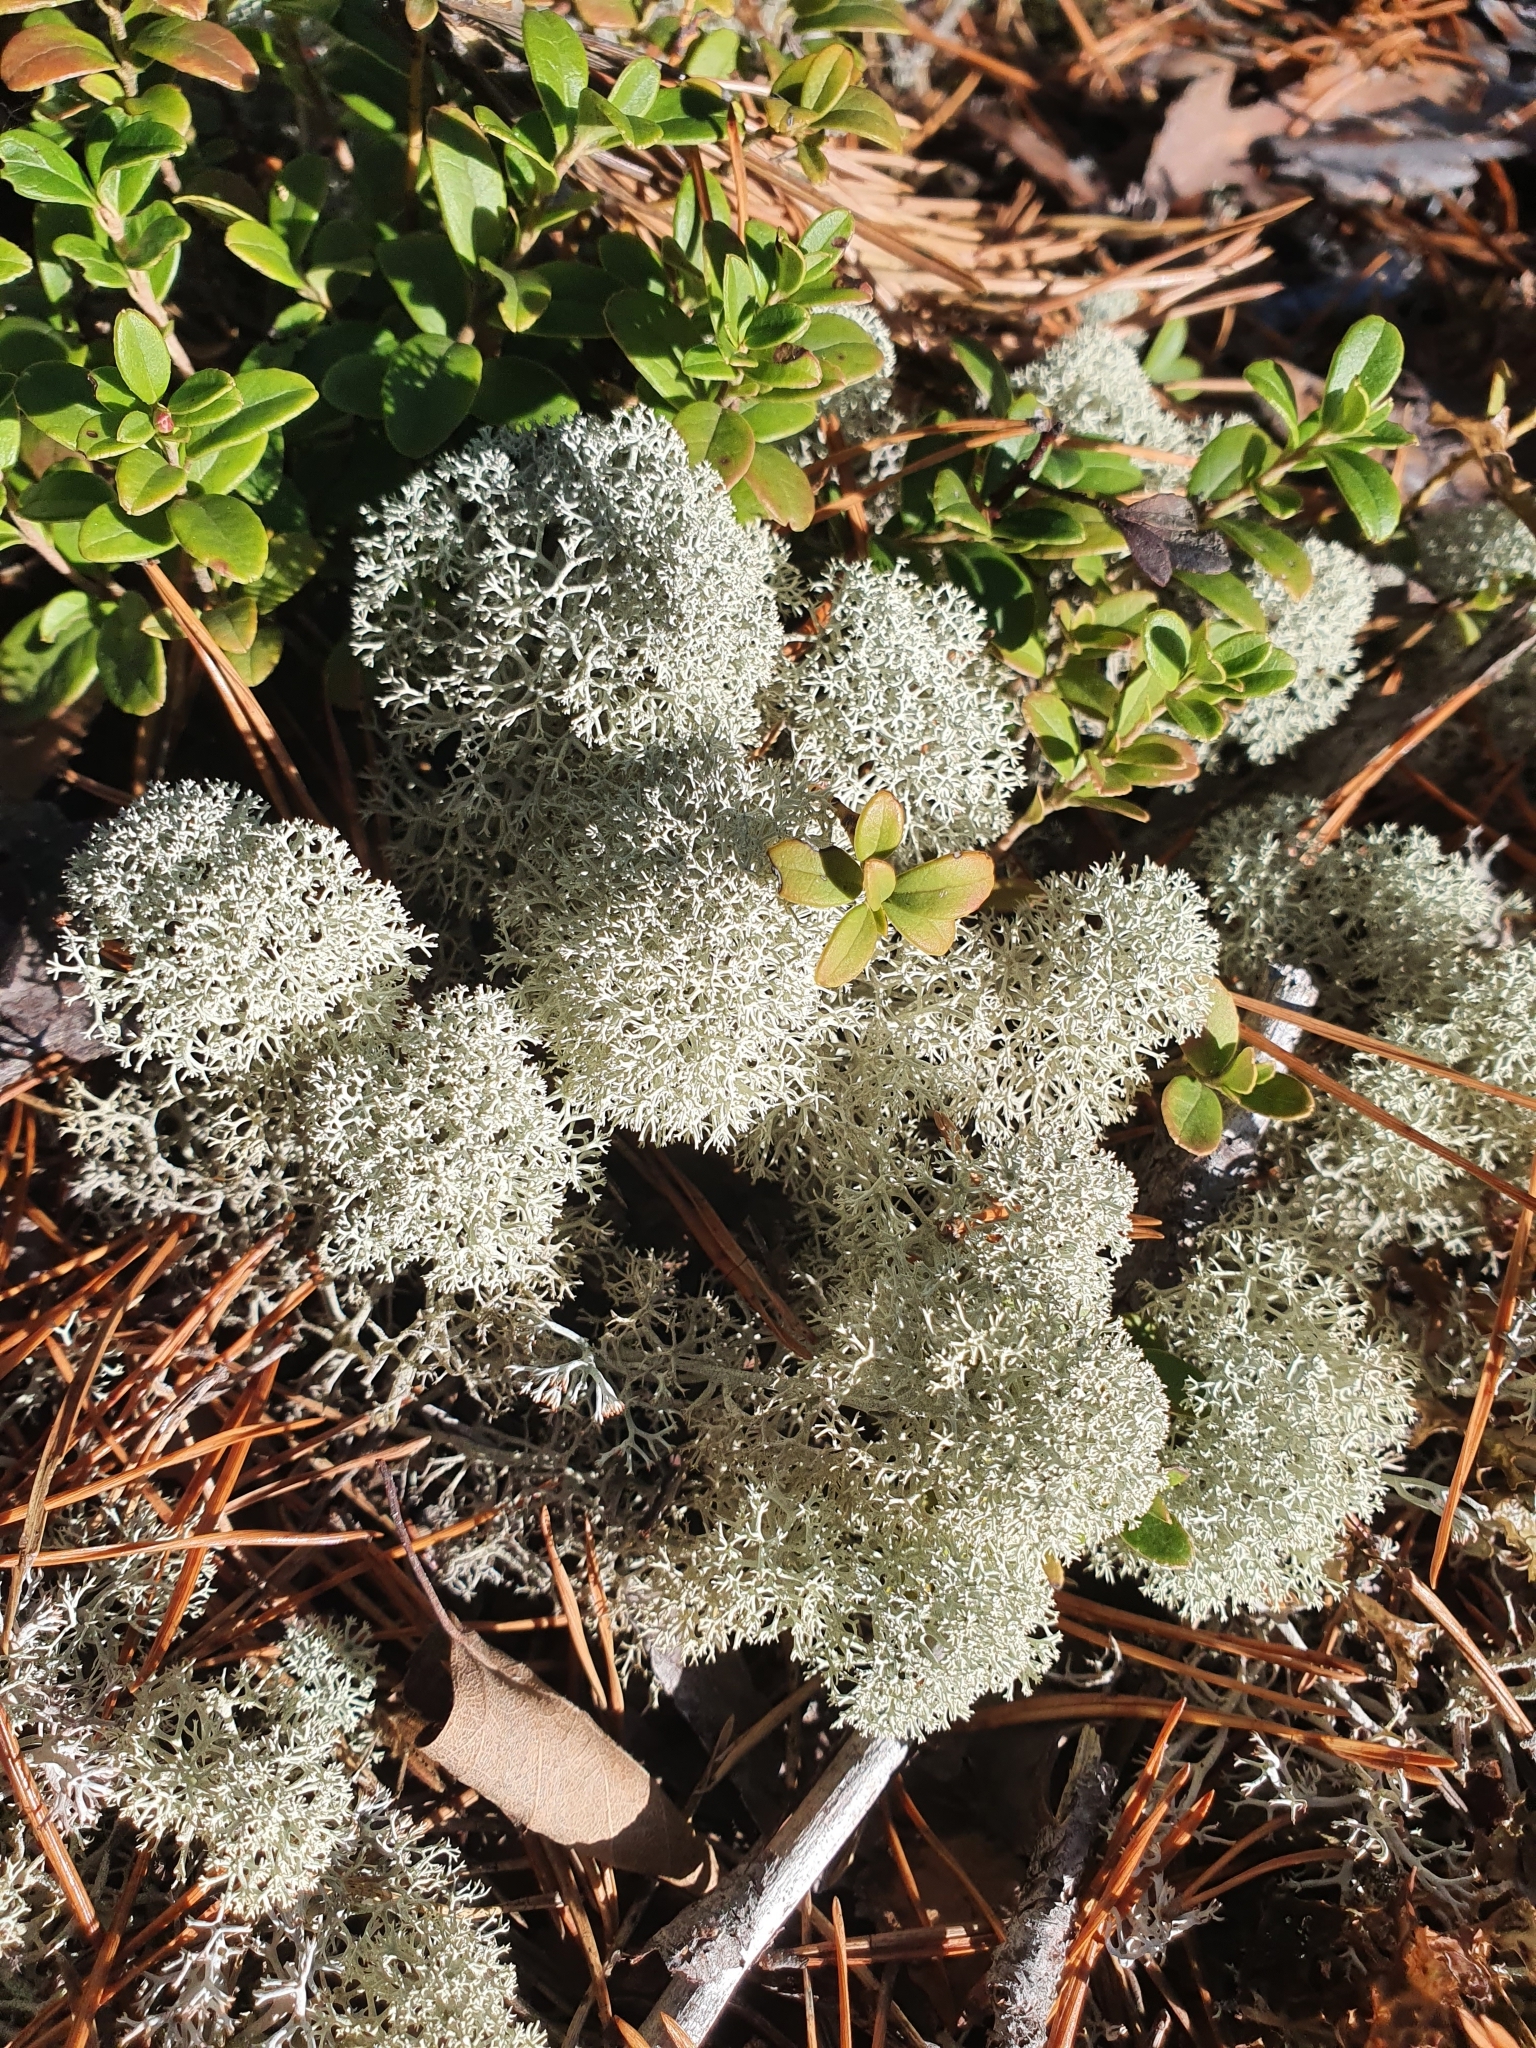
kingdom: Fungi
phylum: Ascomycota
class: Lecanoromycetes
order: Lecanorales
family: Cladoniaceae
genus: Cladonia
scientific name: Cladonia stellaris
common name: Star-tipped reindeer lichen
